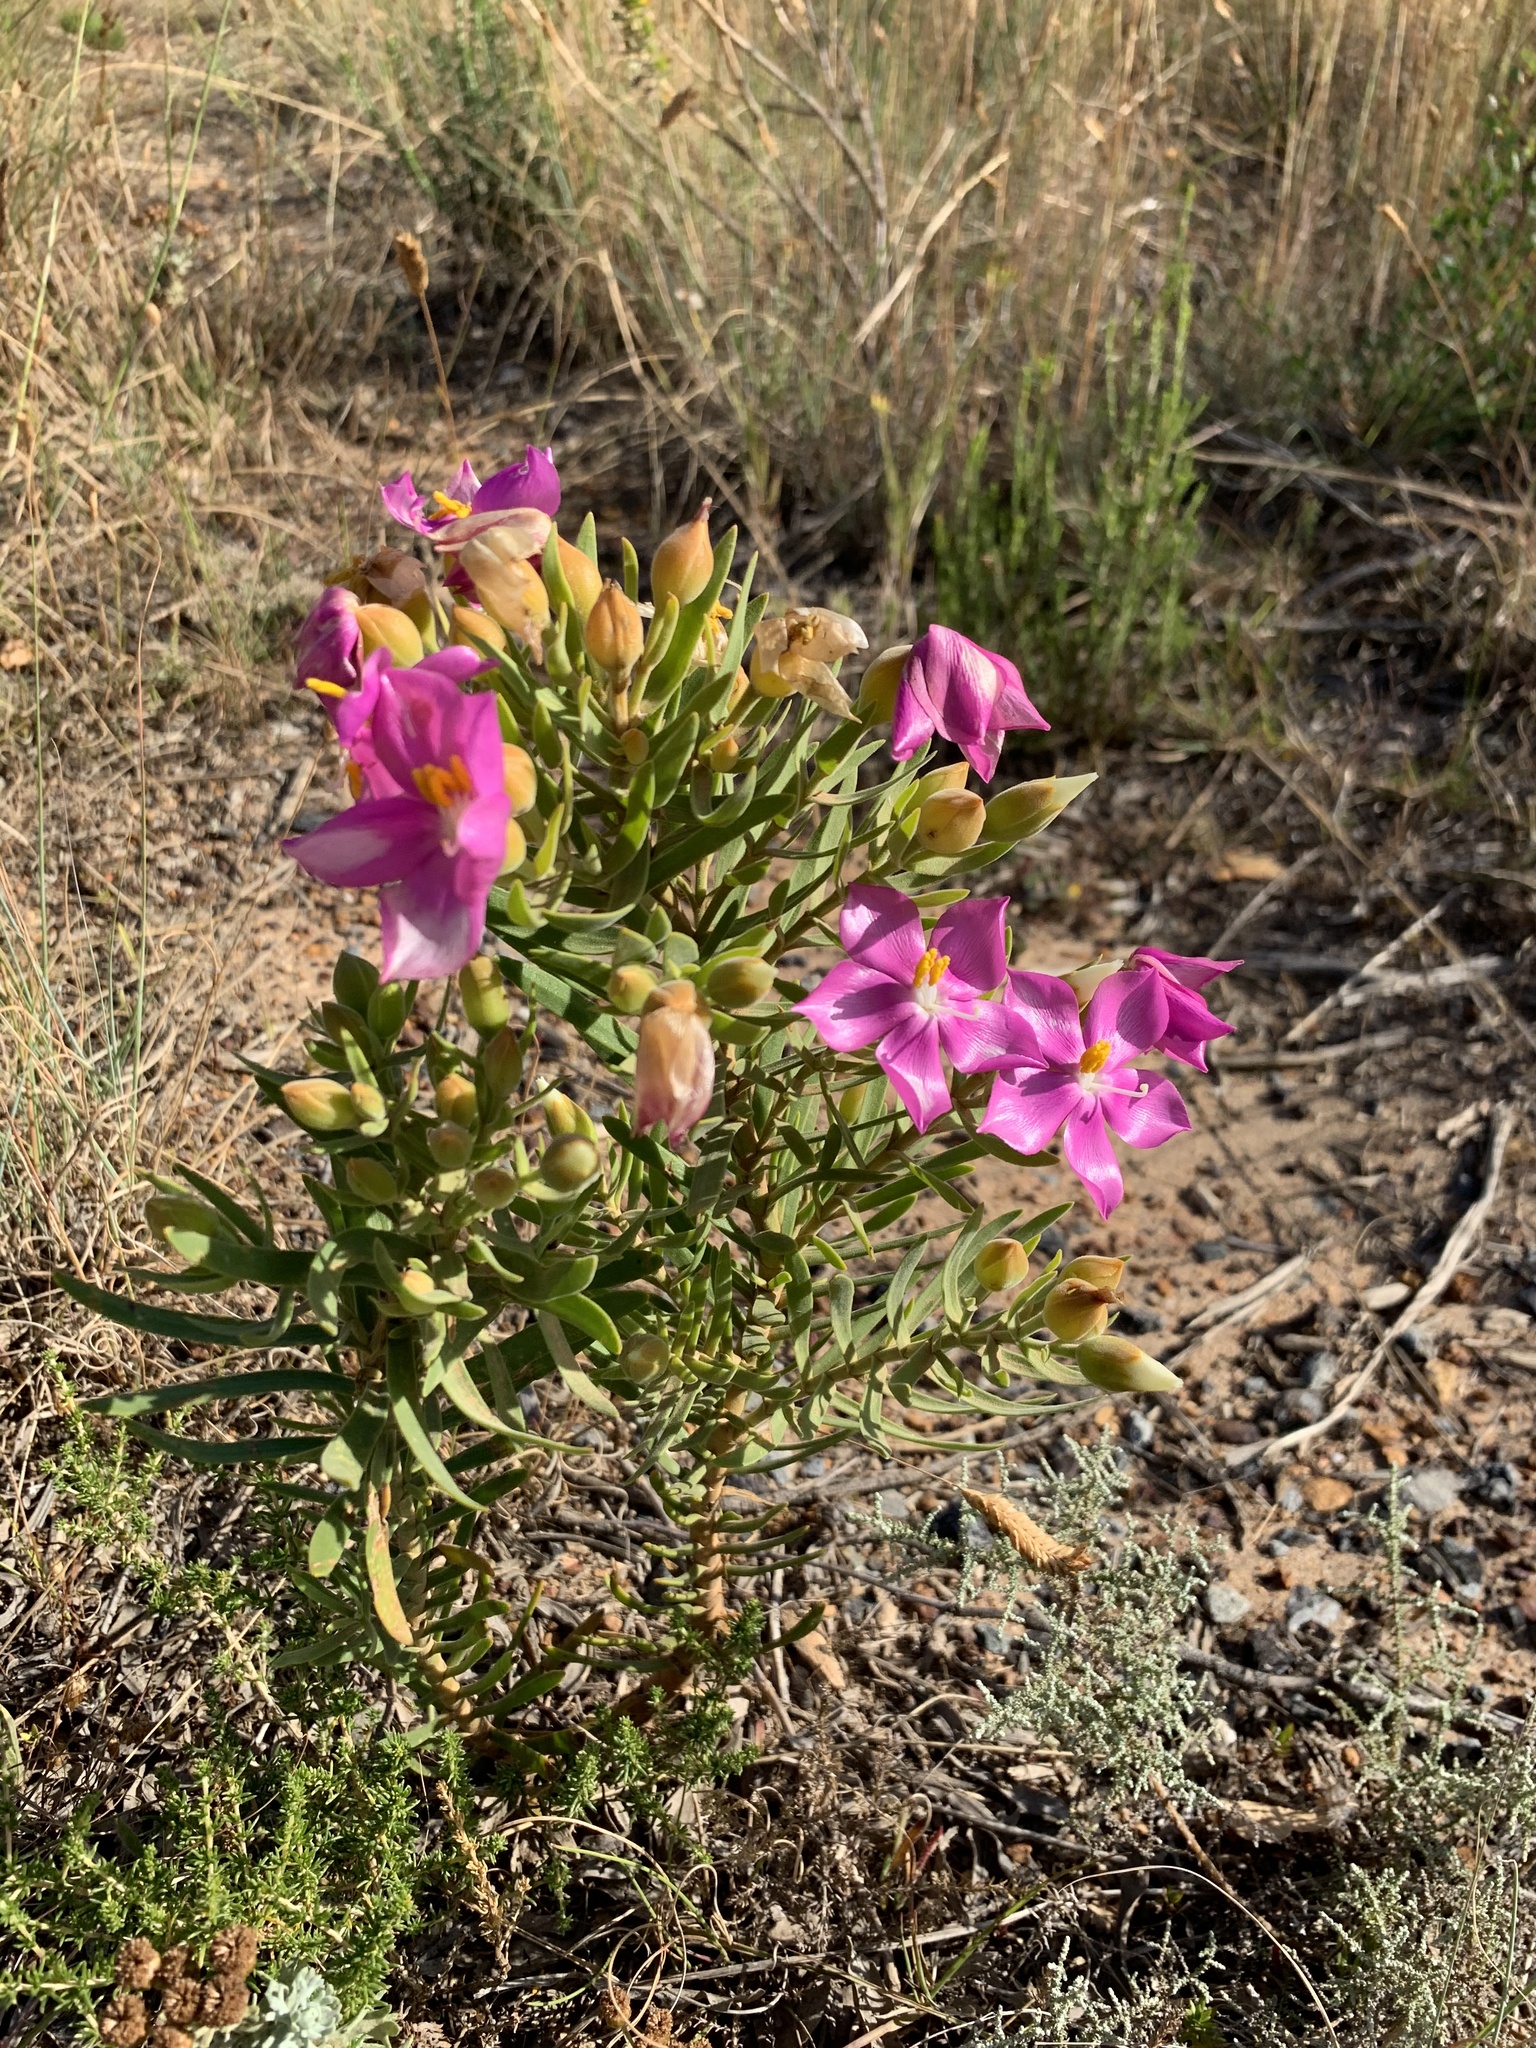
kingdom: Plantae
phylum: Tracheophyta
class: Magnoliopsida
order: Gentianales
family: Gentianaceae
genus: Orphium
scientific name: Orphium frutescens
